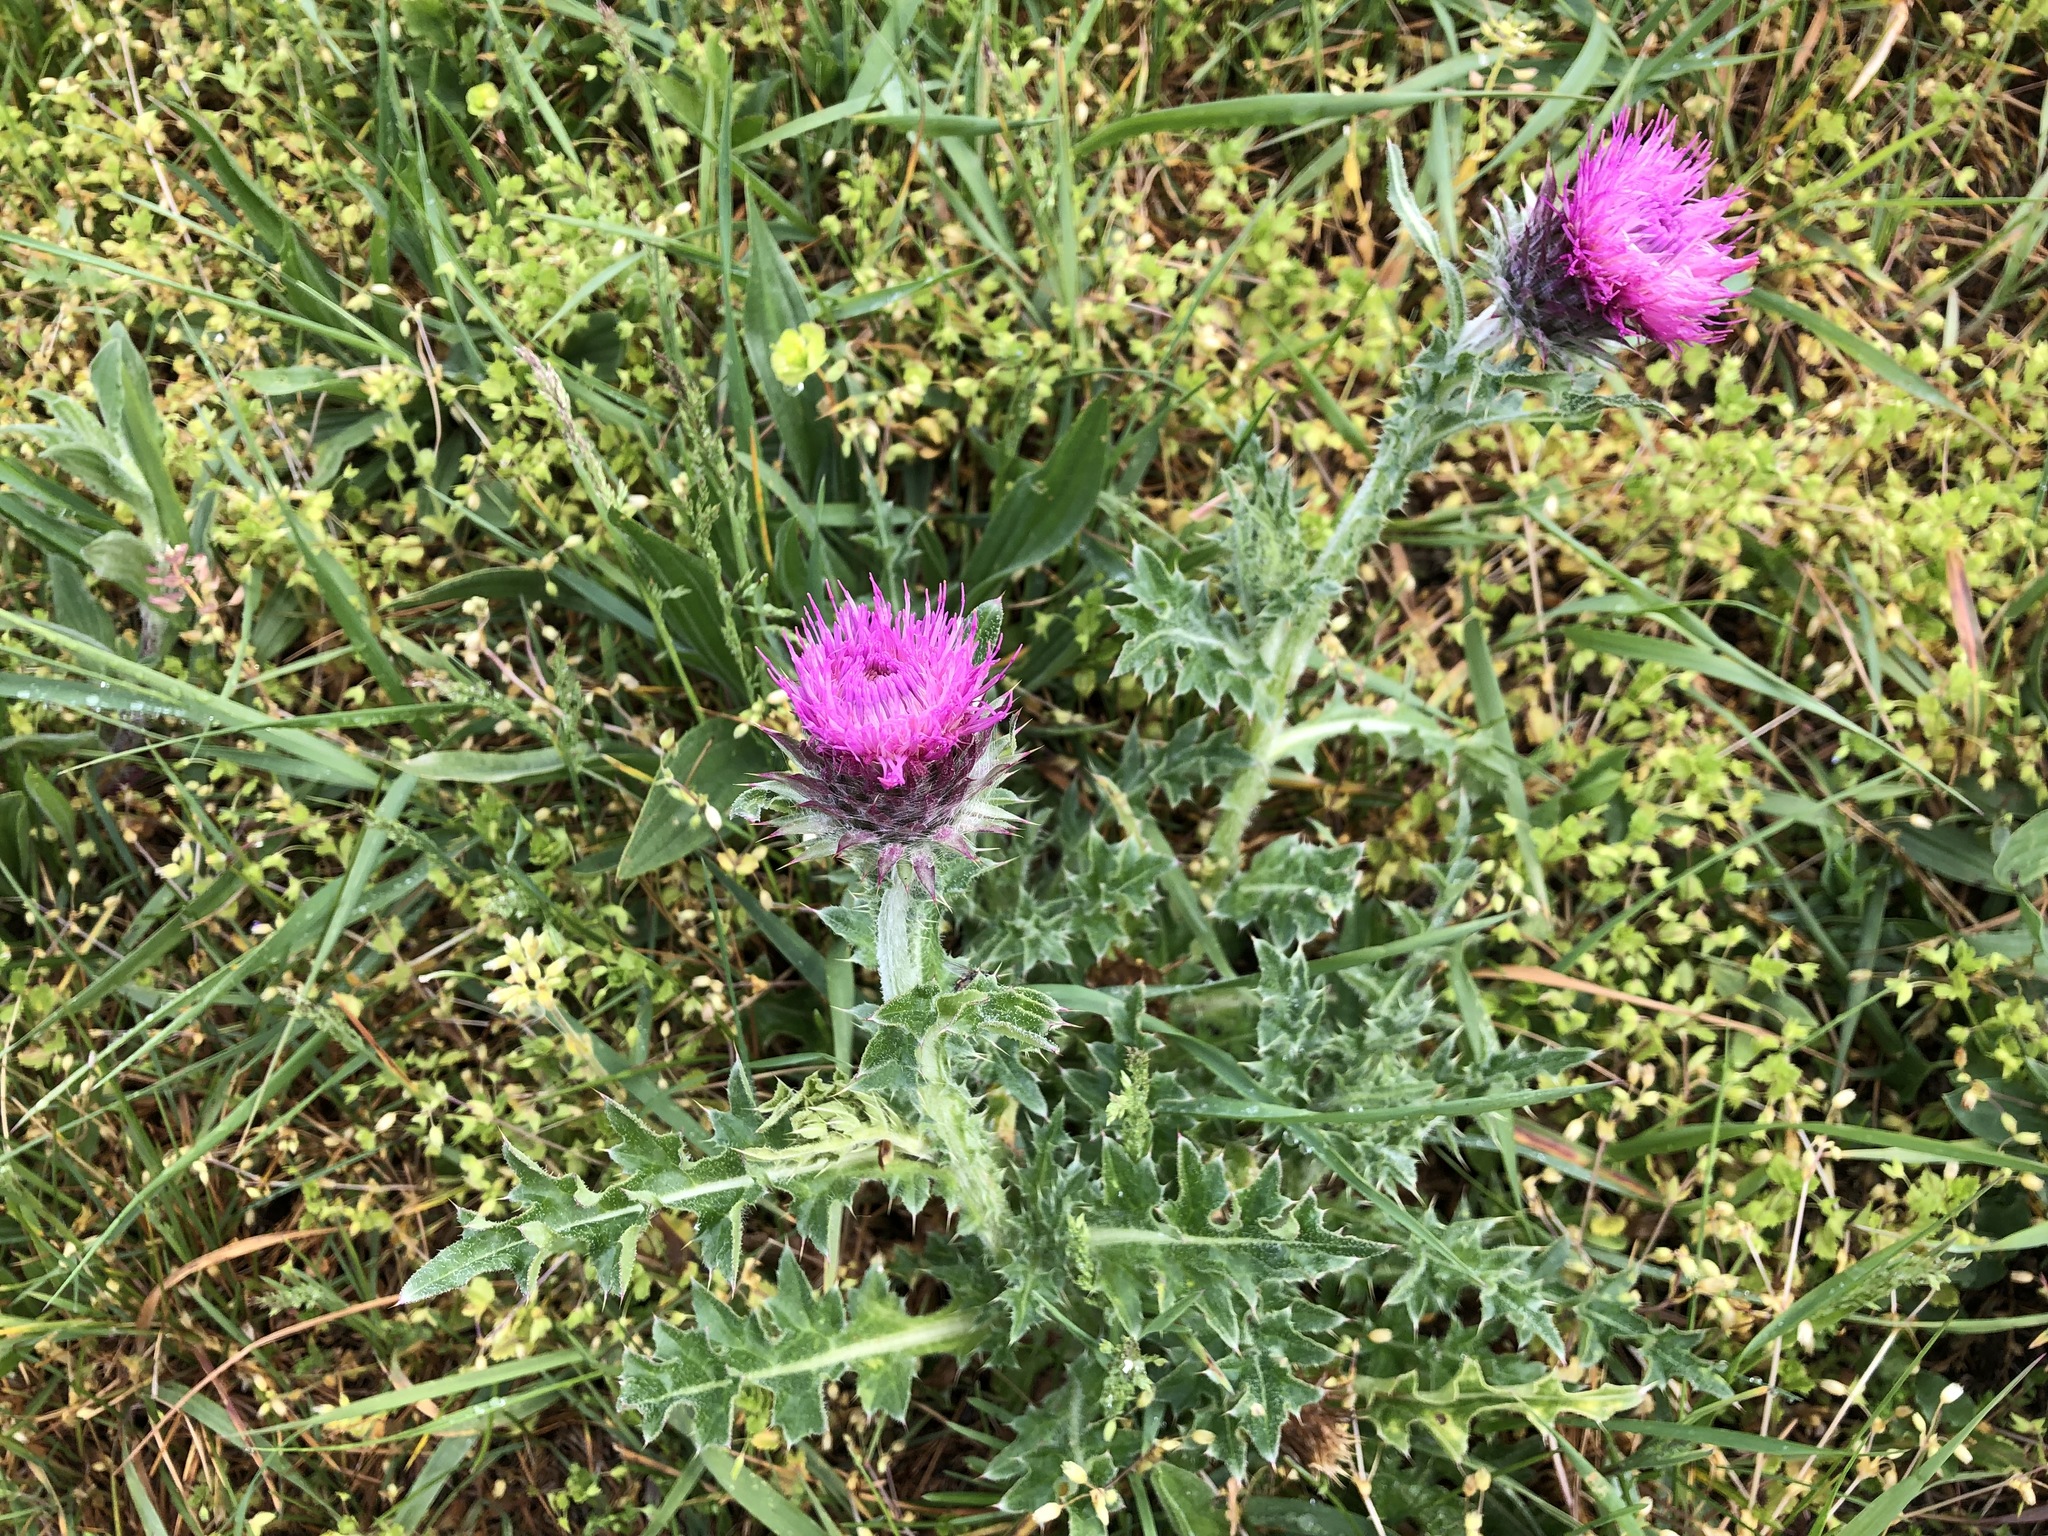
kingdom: Plantae
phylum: Tracheophyta
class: Magnoliopsida
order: Asterales
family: Asteraceae
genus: Carduus
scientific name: Carduus nutans
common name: Musk thistle
